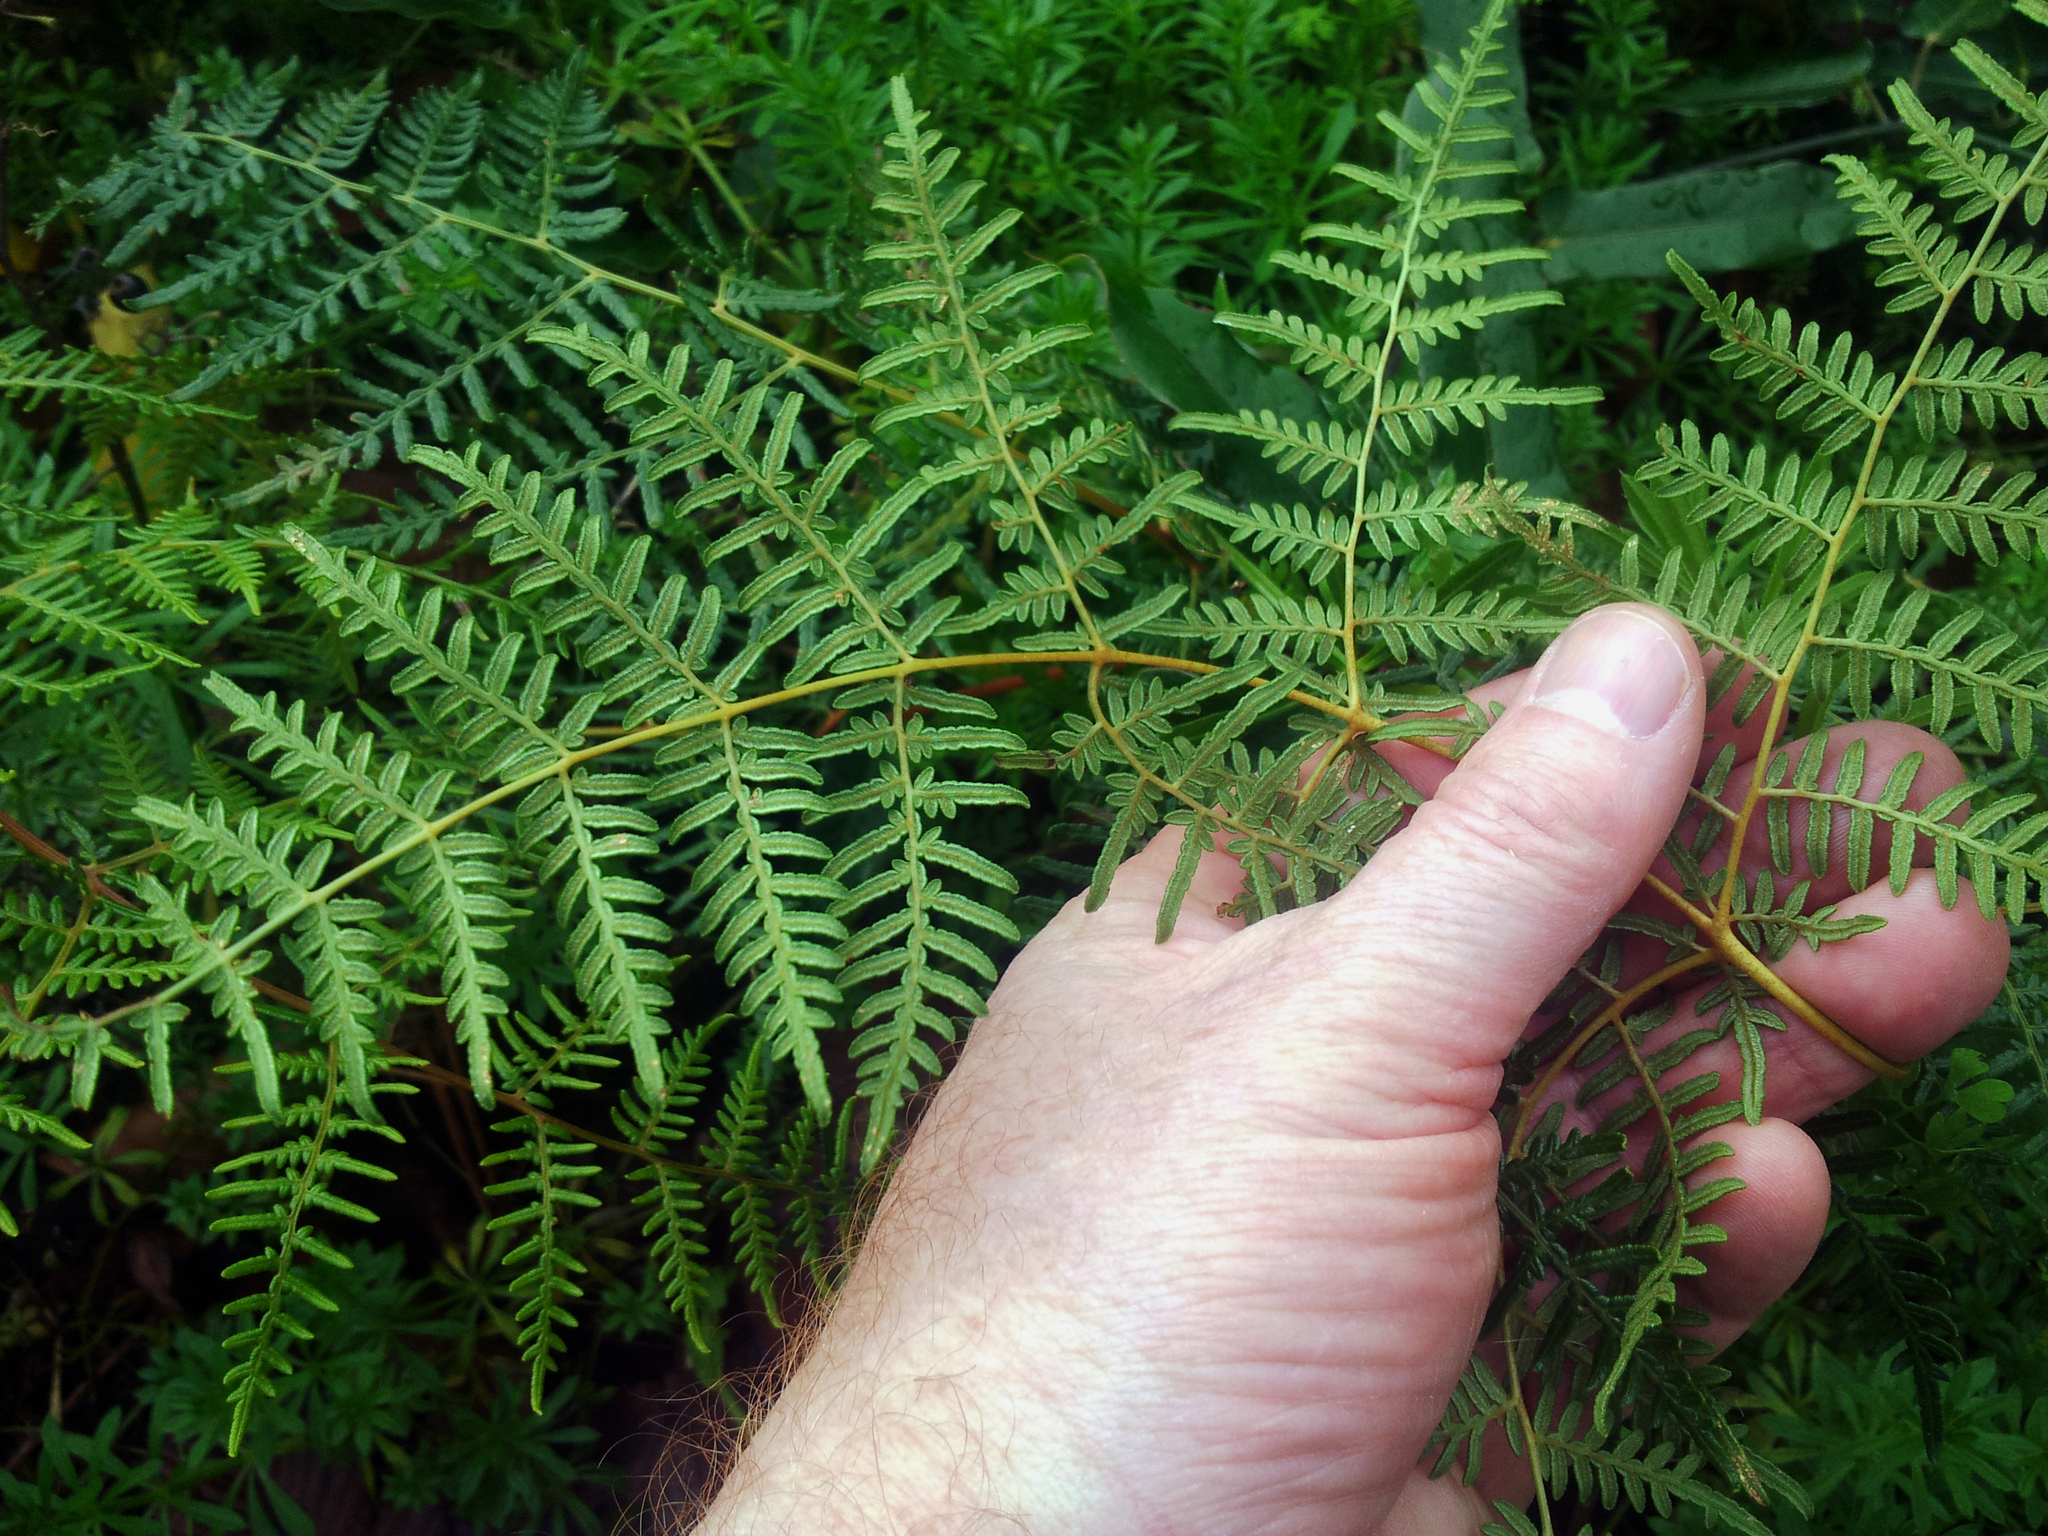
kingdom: Plantae
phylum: Tracheophyta
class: Polypodiopsida
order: Polypodiales
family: Dennstaedtiaceae
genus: Pteridium
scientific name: Pteridium esculentum
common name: Bracken fern
